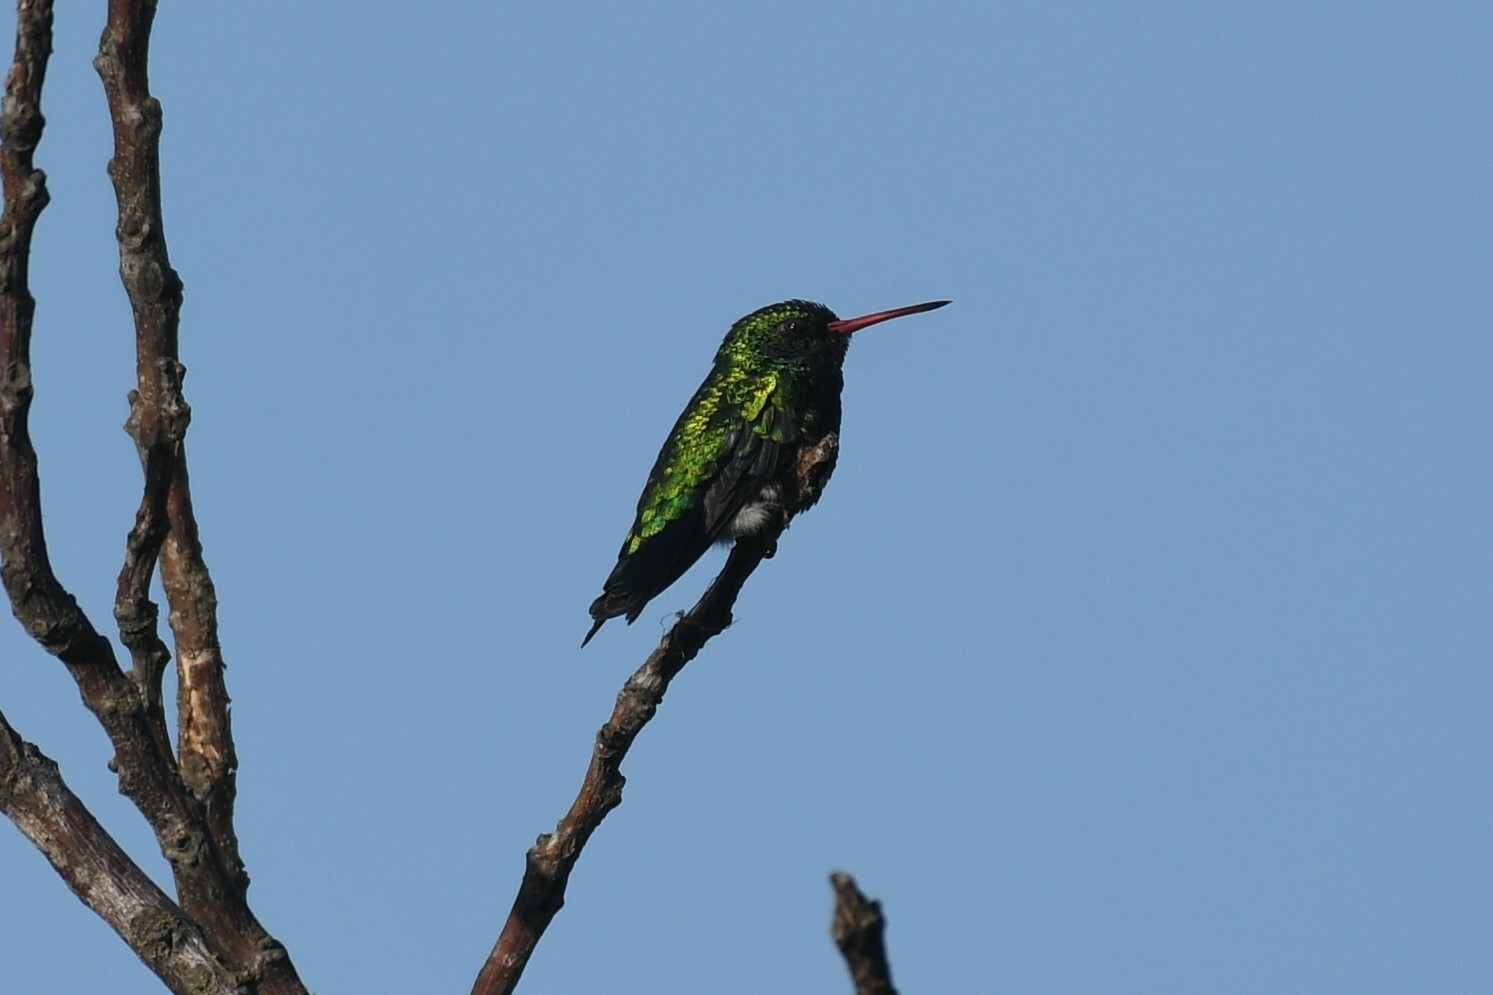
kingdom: Animalia
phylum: Chordata
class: Aves
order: Apodiformes
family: Trochilidae
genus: Chlorostilbon
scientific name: Chlorostilbon lucidus
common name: Glittering-bellied emerald
